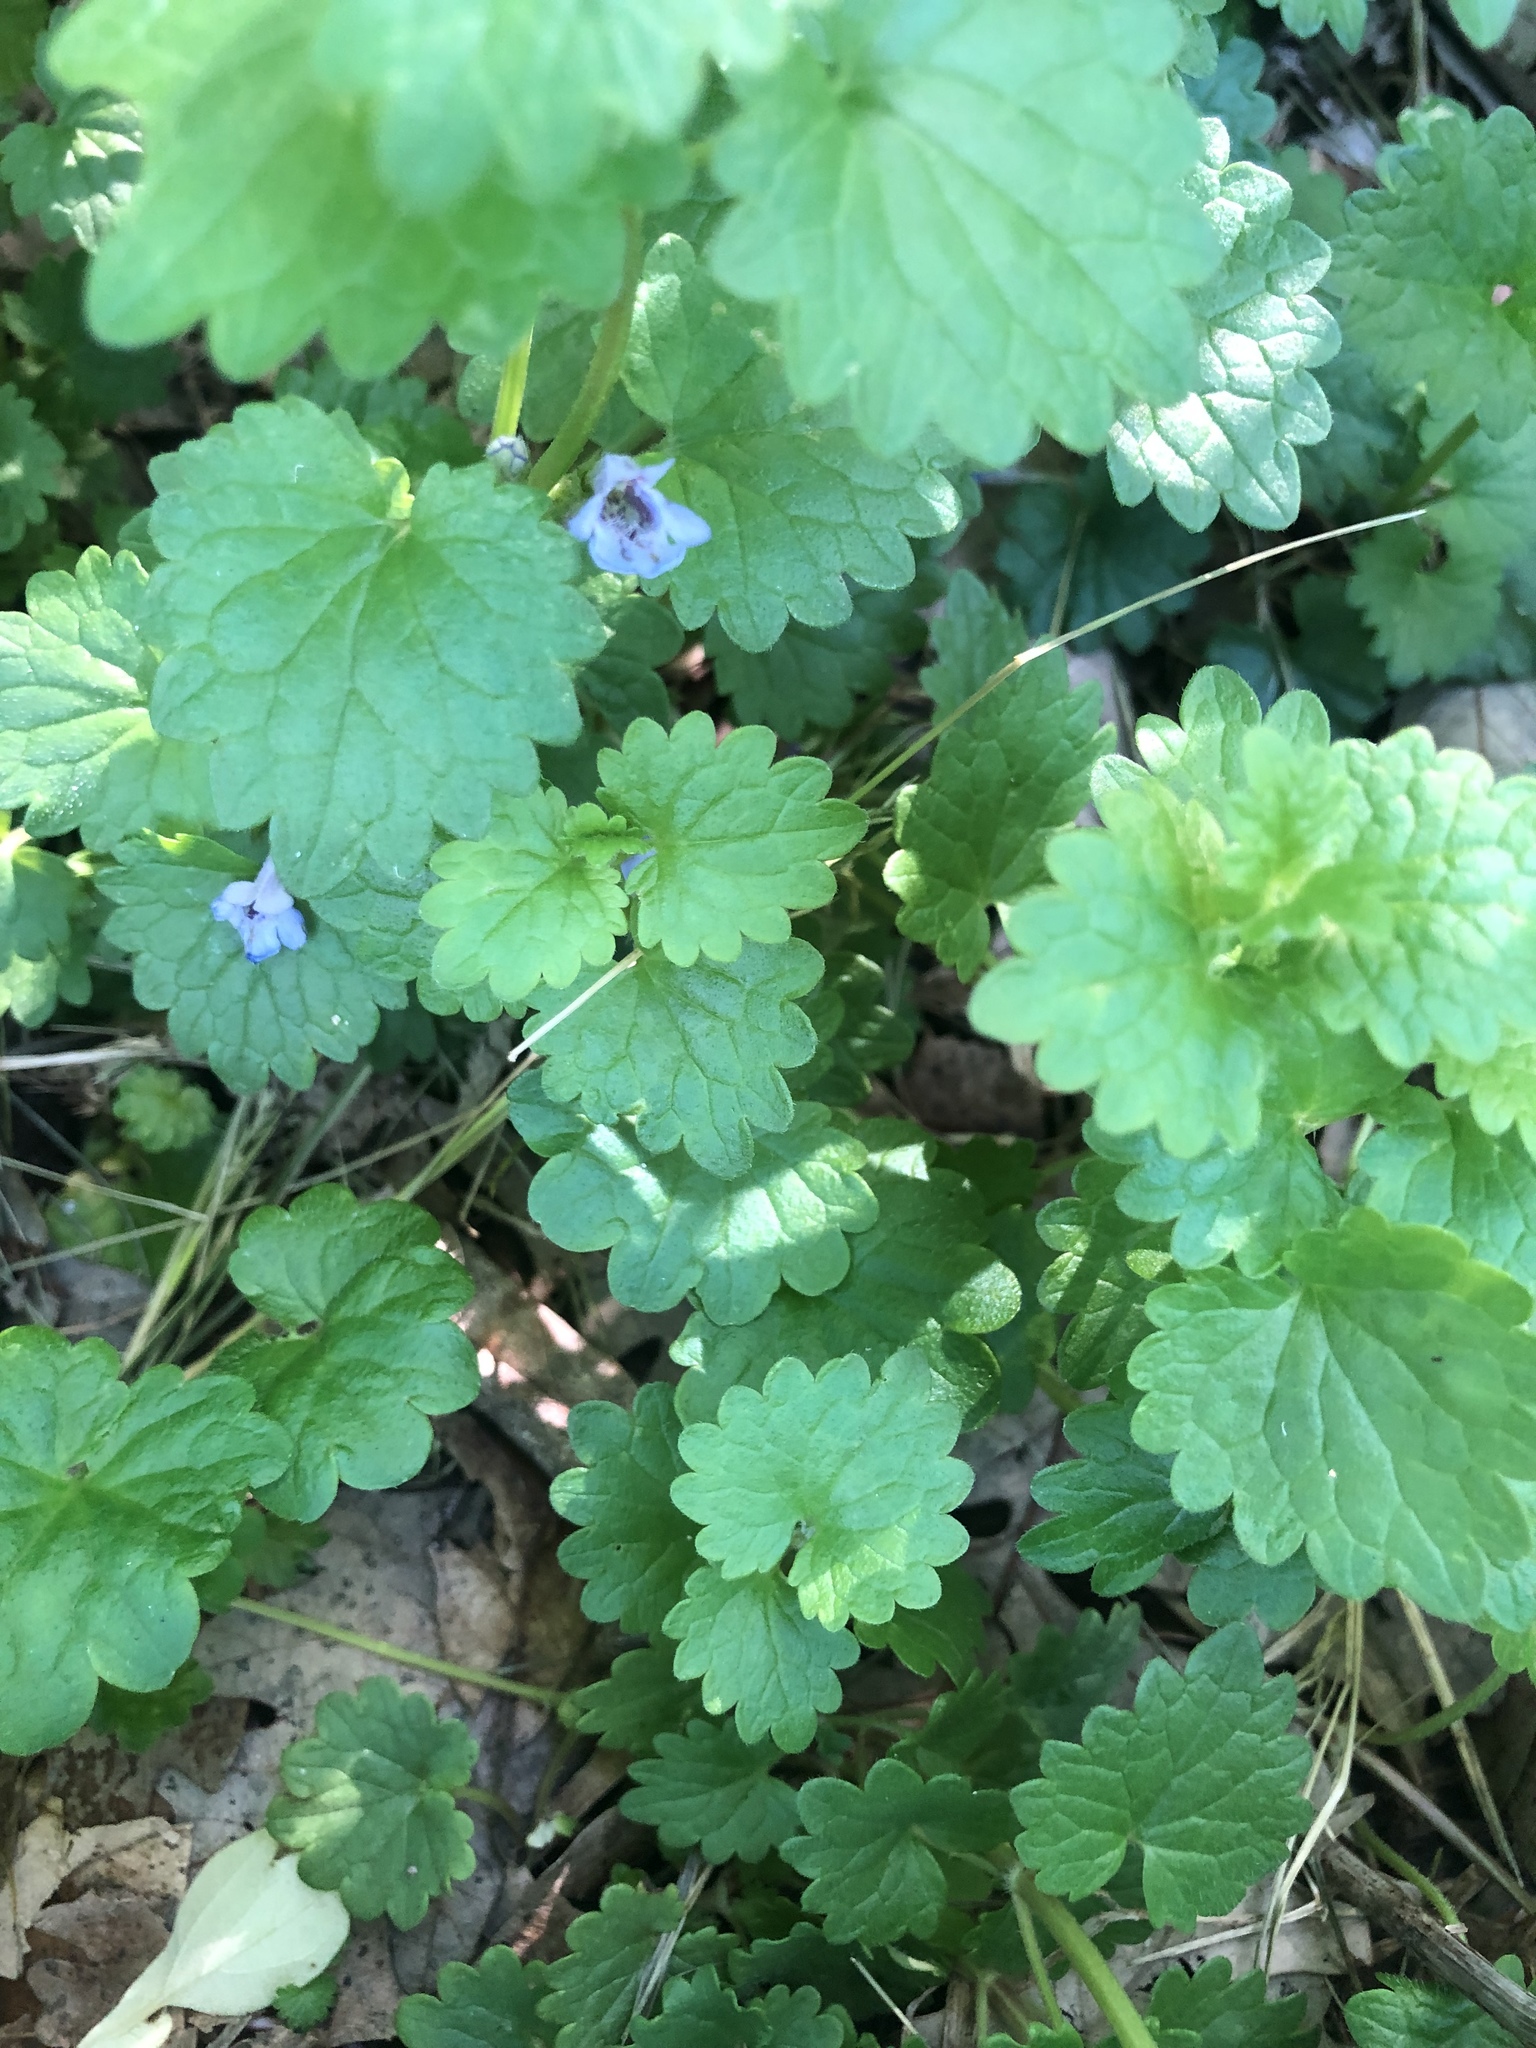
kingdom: Plantae
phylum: Tracheophyta
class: Magnoliopsida
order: Lamiales
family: Lamiaceae
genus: Glechoma
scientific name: Glechoma hederacea
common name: Ground ivy
